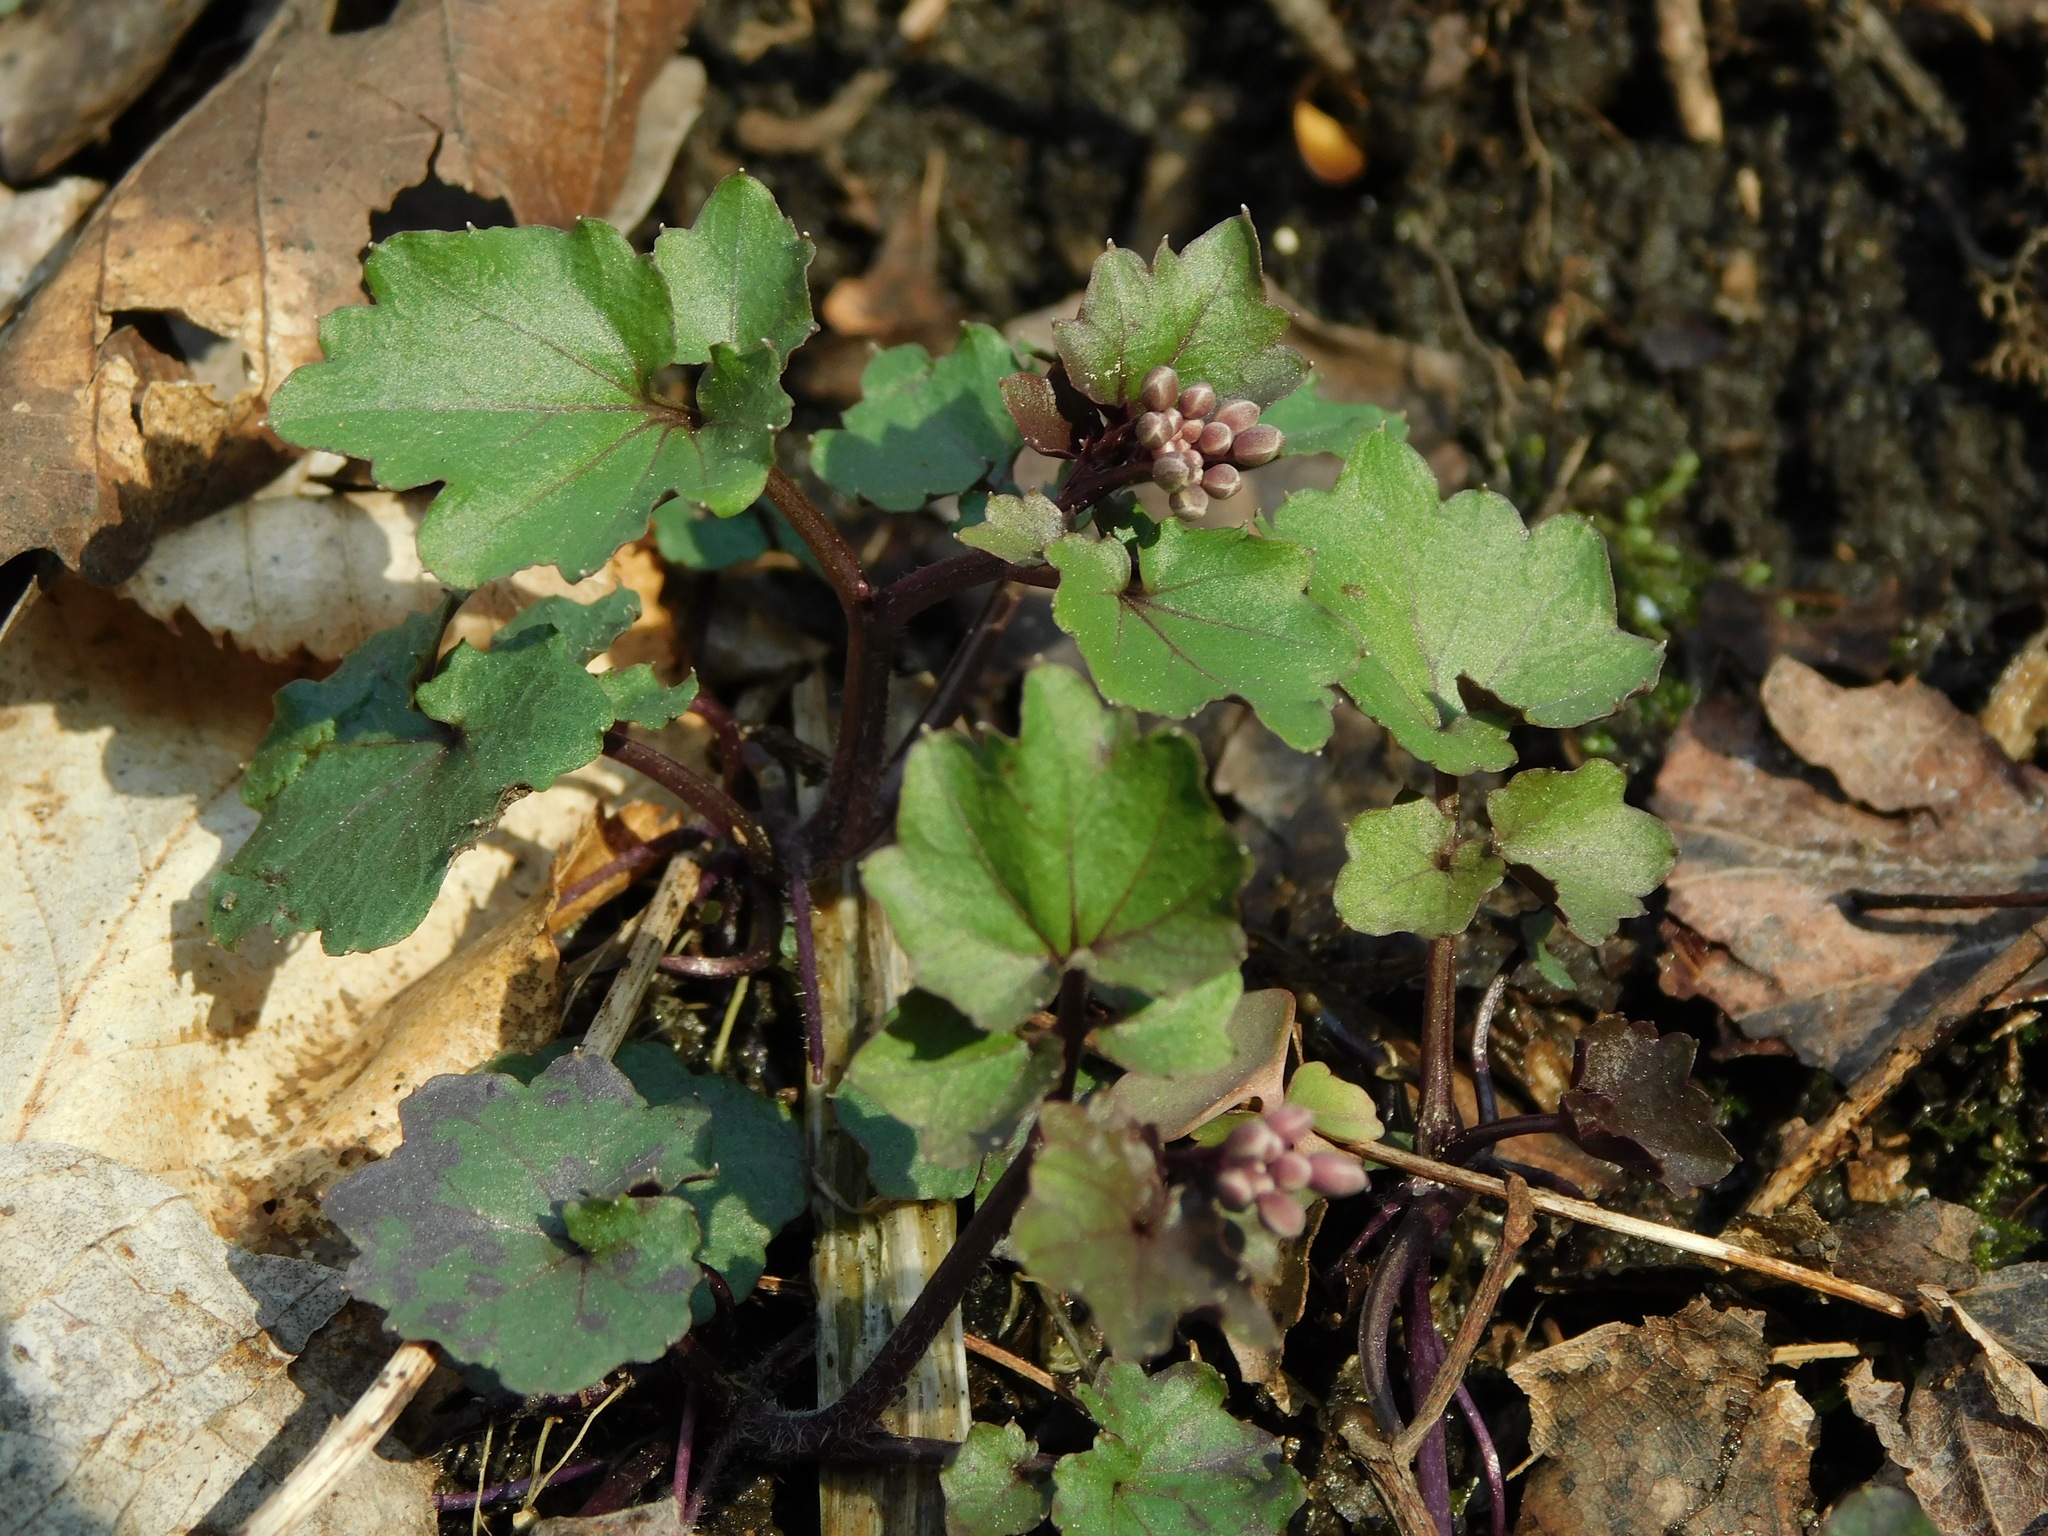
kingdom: Plantae
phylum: Tracheophyta
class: Magnoliopsida
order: Brassicales
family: Brassicaceae
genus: Cardamine
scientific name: Cardamine flagellifera
